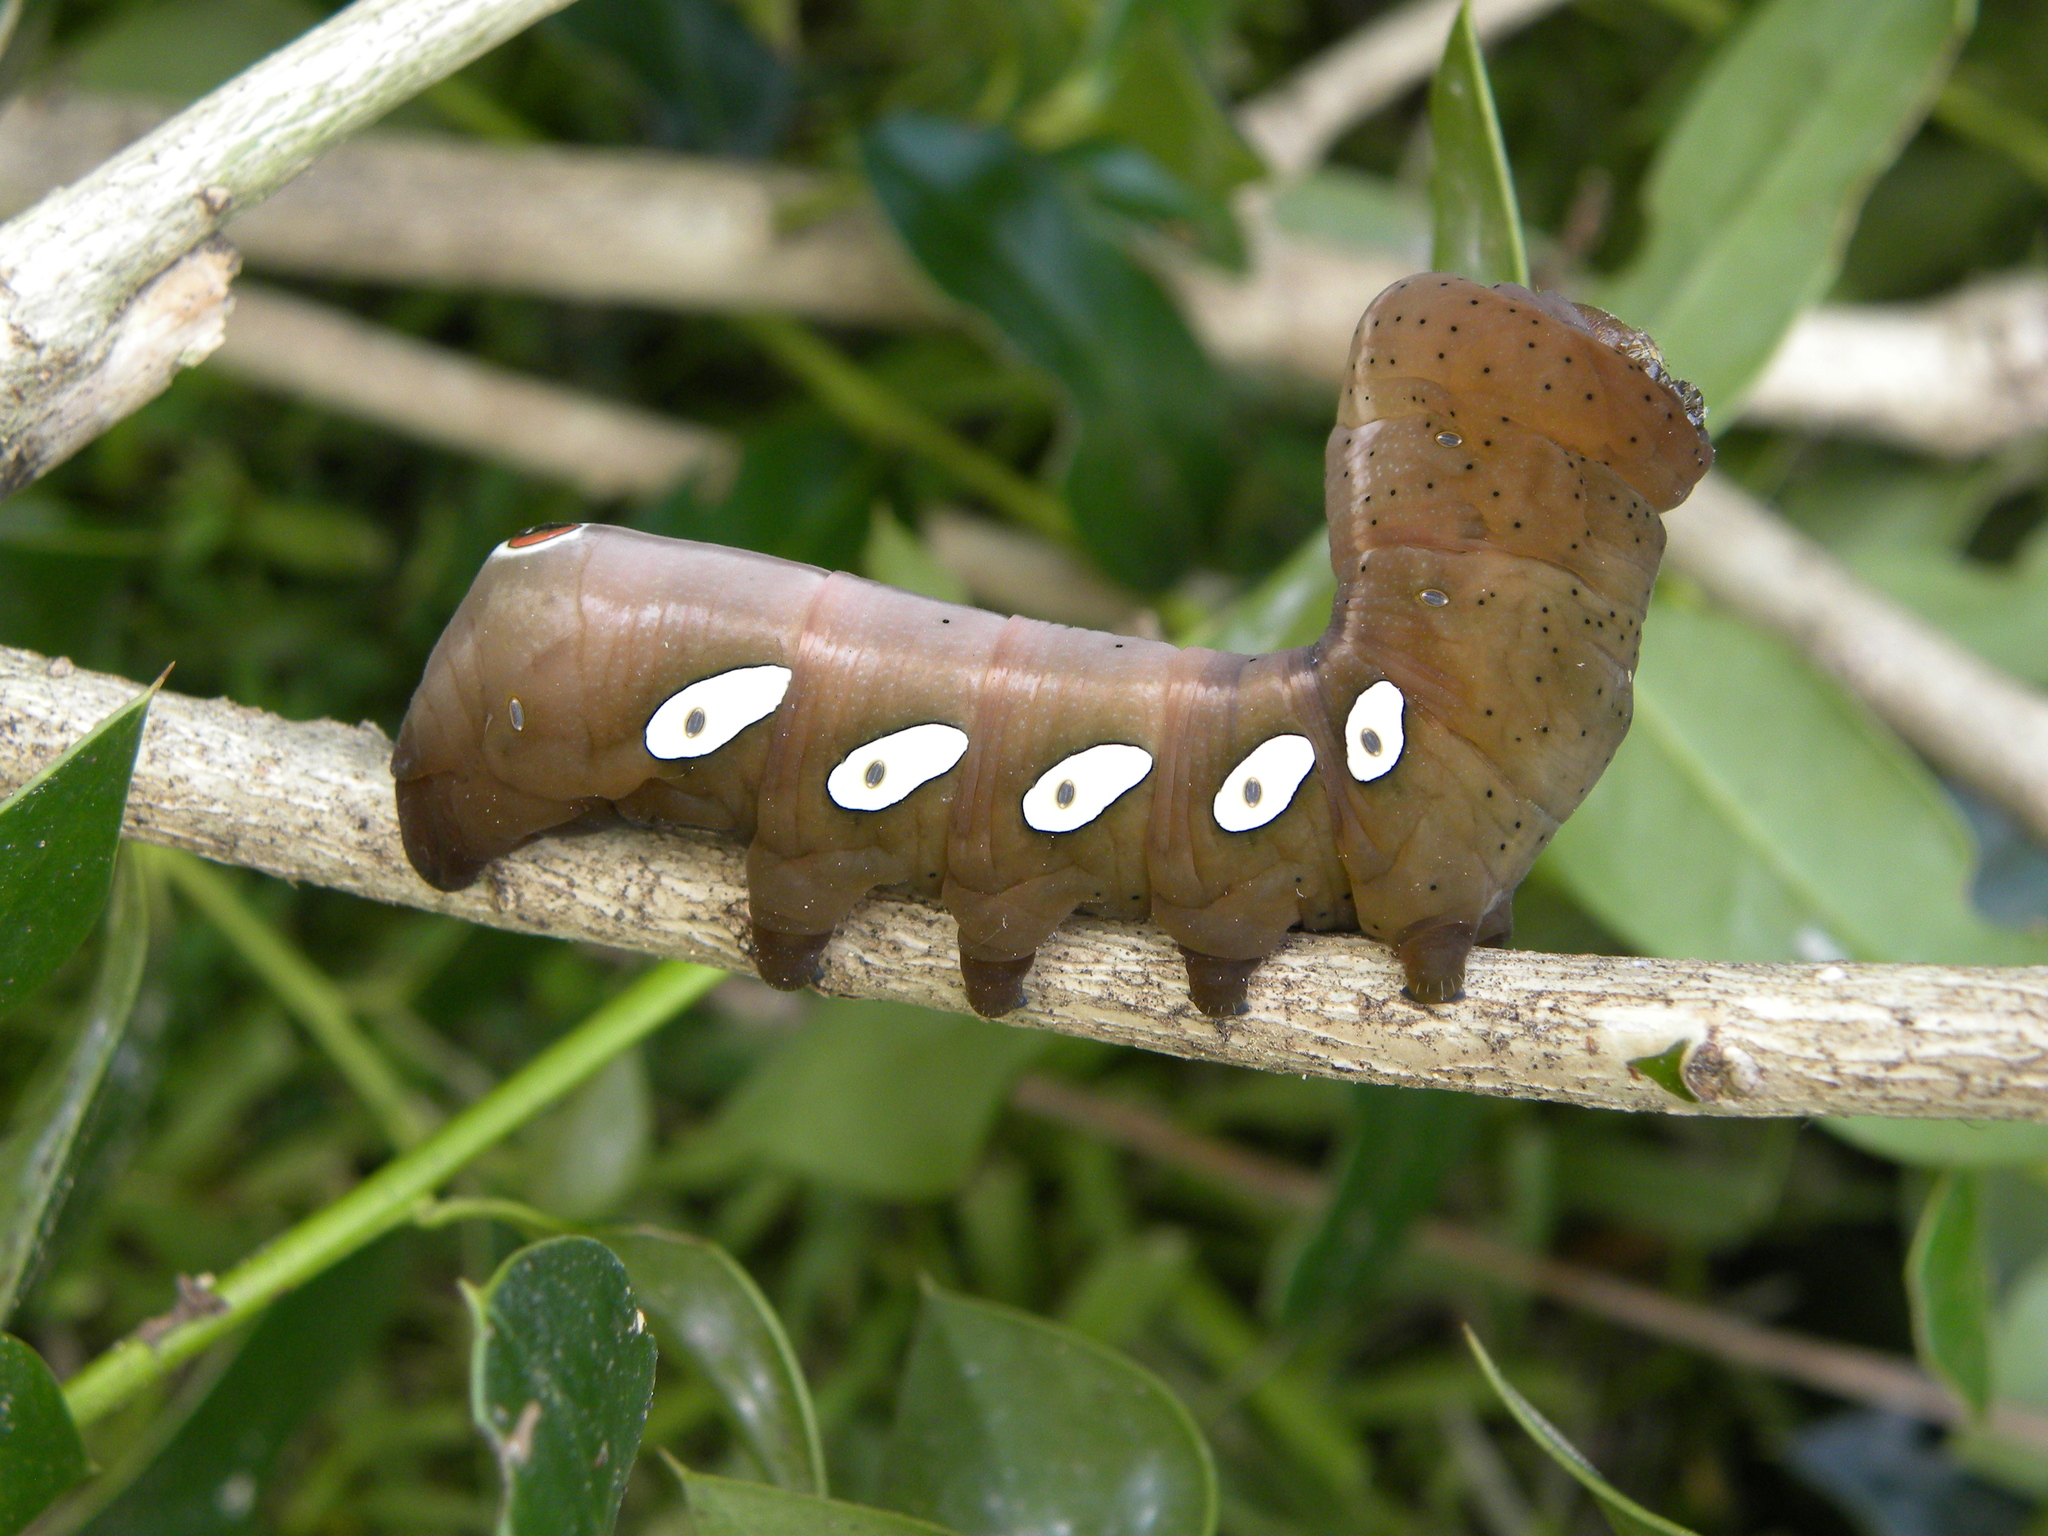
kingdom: Animalia
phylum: Arthropoda
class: Insecta
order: Lepidoptera
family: Sphingidae
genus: Eumorpha
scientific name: Eumorpha pandorus
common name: Pandora sphinx
